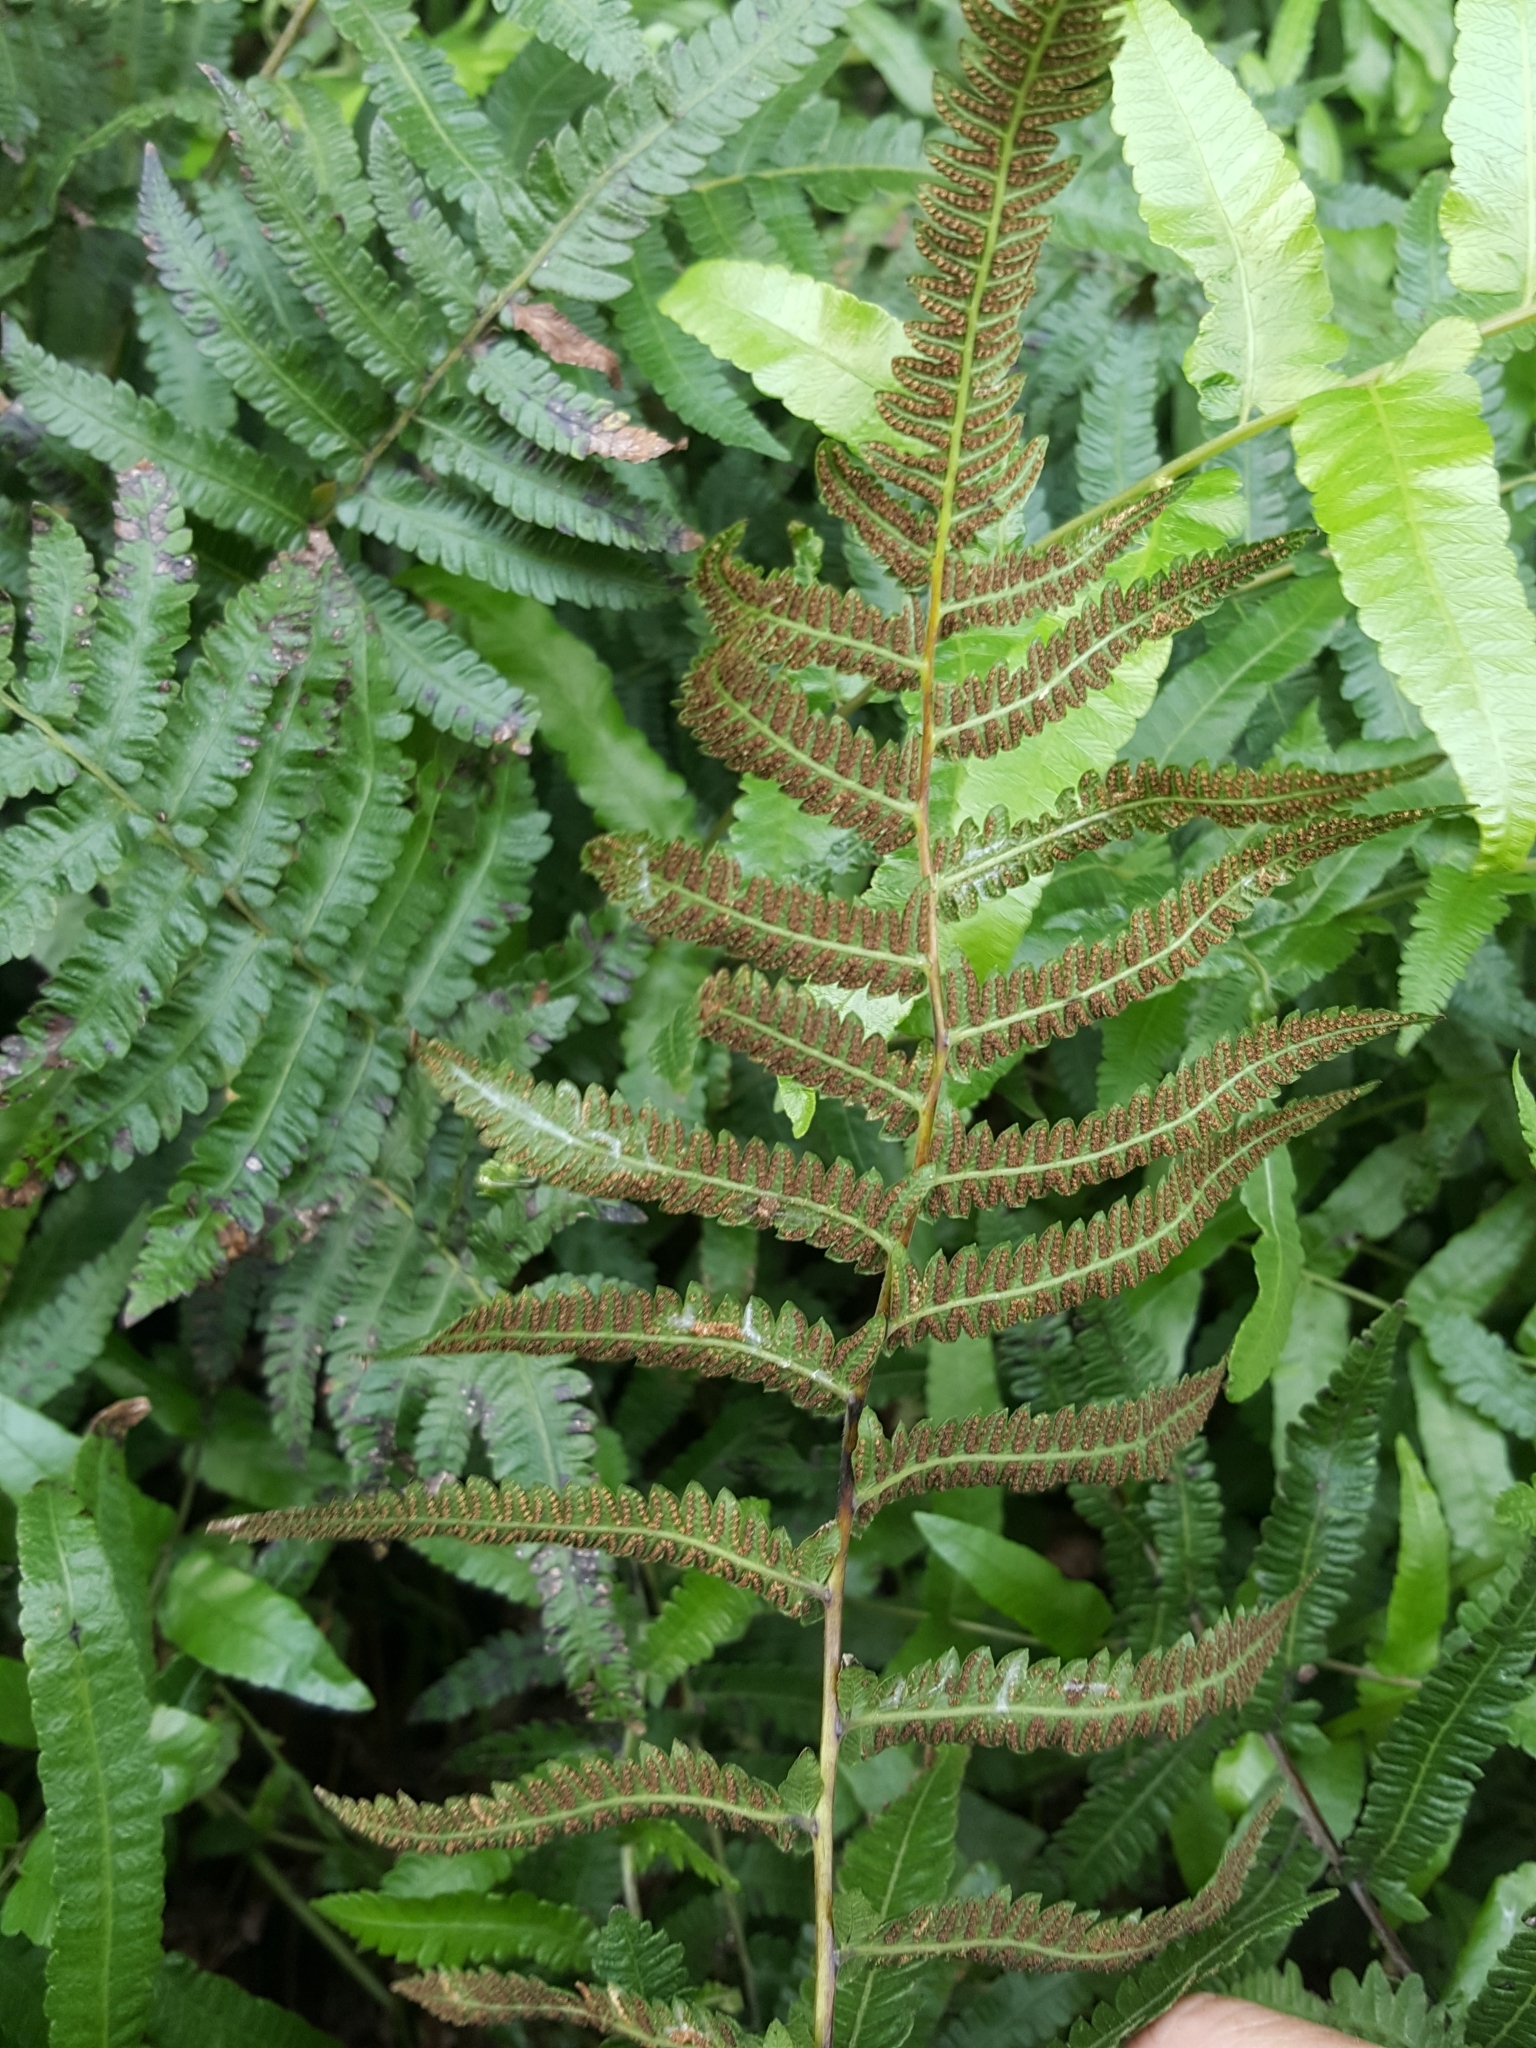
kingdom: Plantae
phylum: Tracheophyta
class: Polypodiopsida
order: Polypodiales
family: Thelypteridaceae
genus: Christella
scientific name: Christella acuminata
